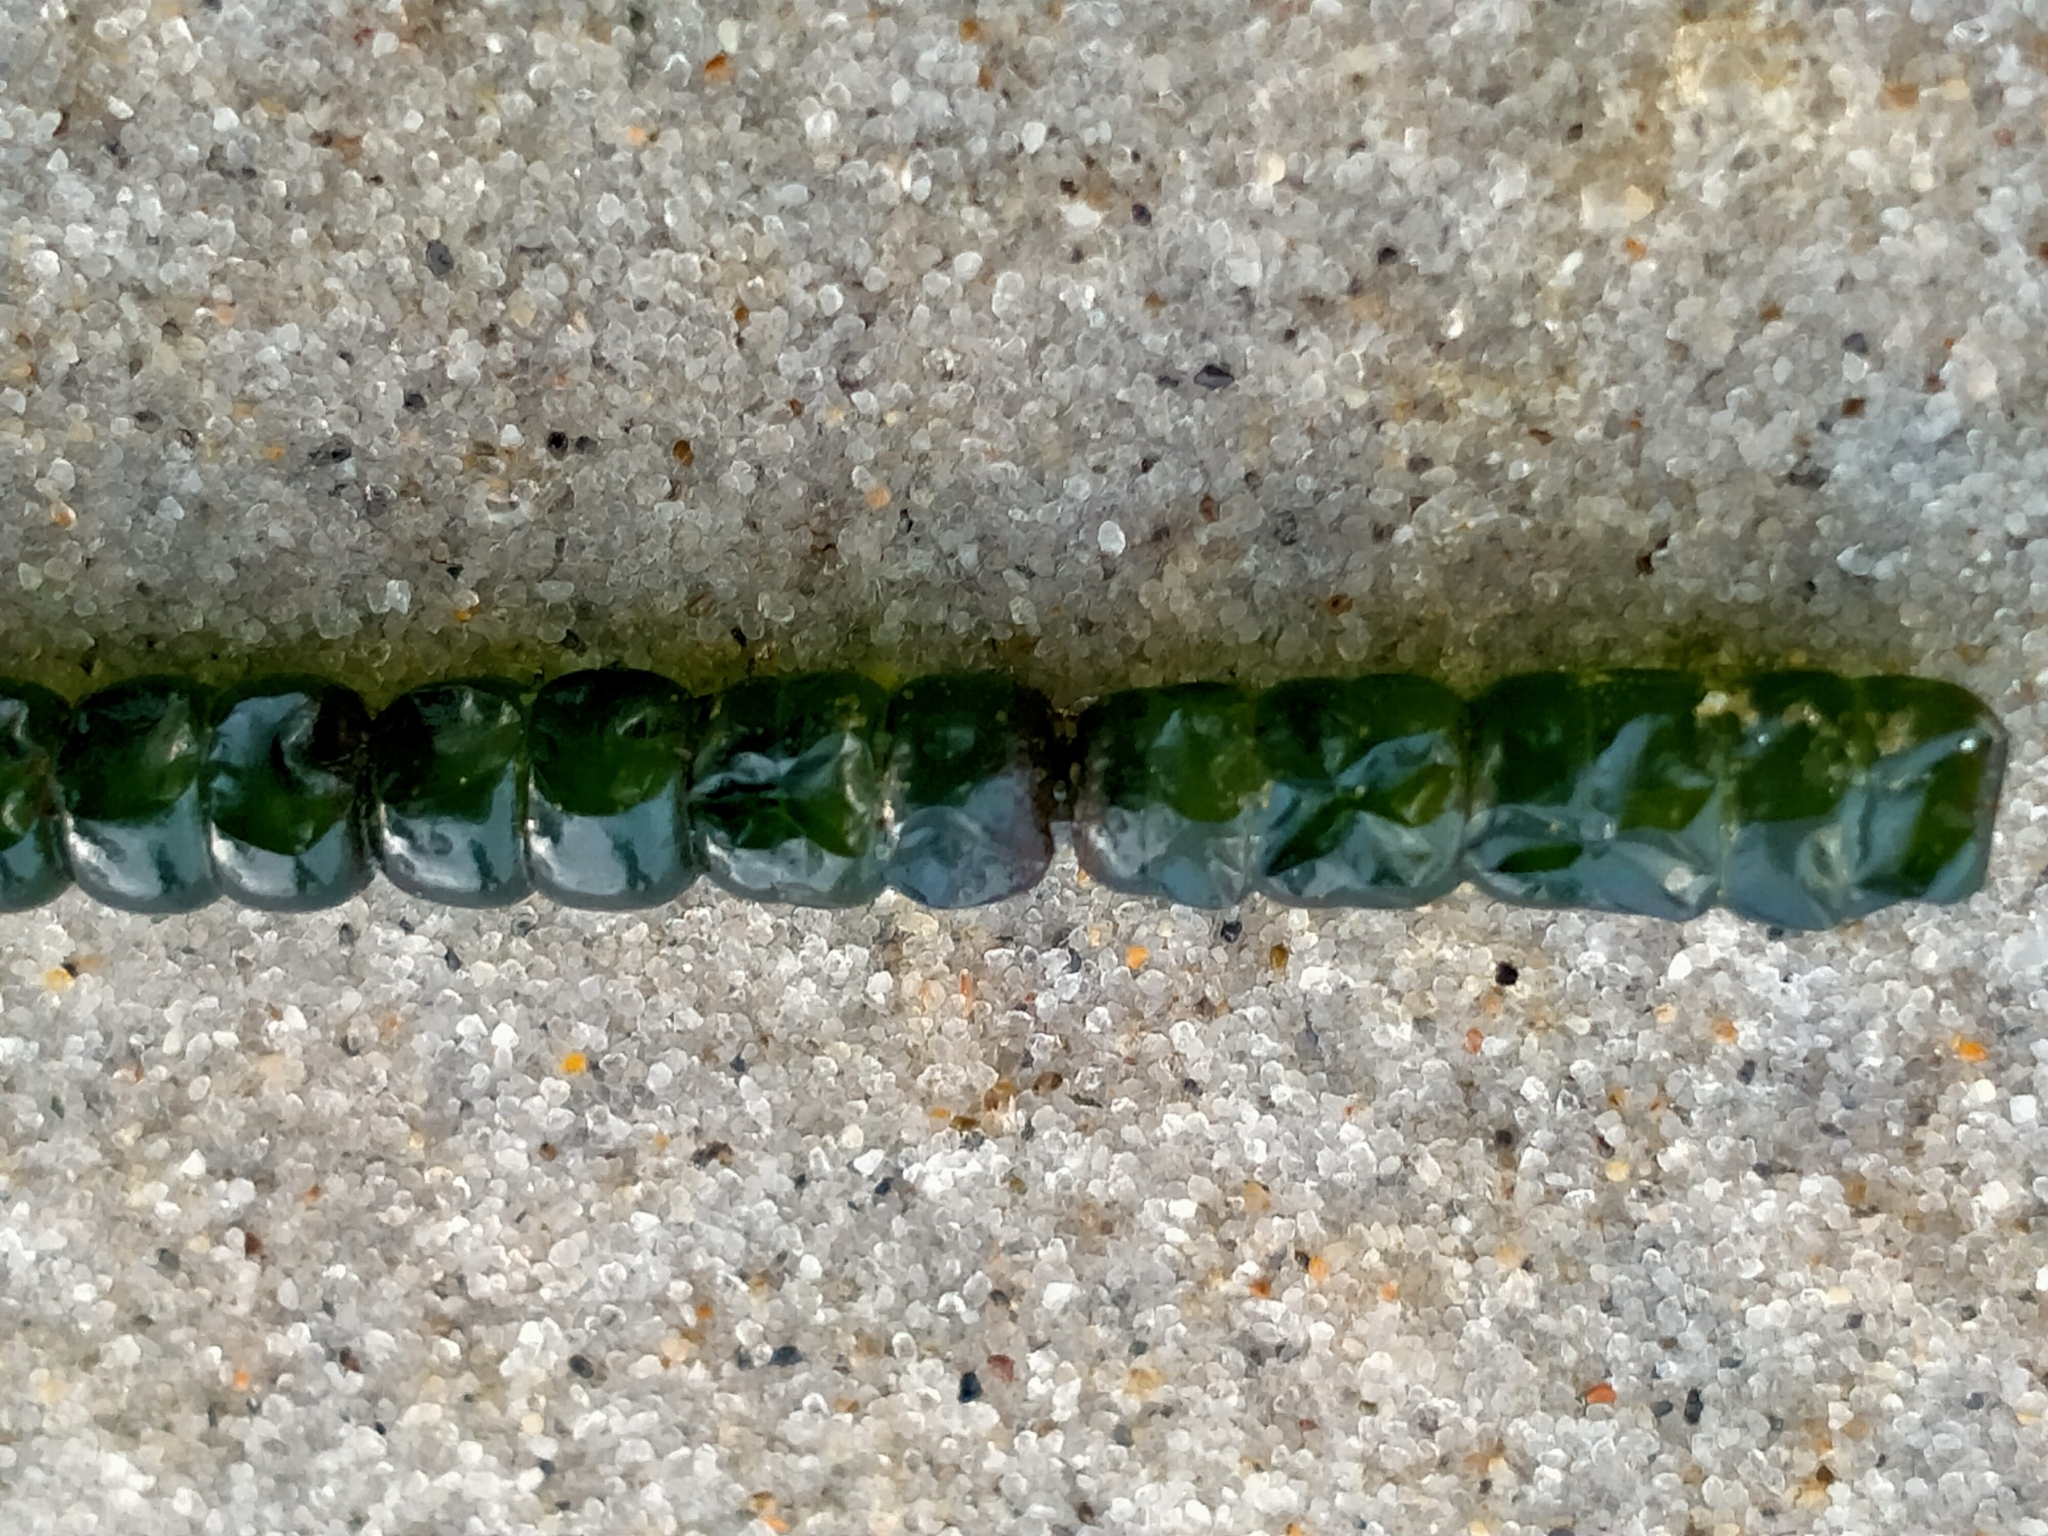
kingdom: Plantae
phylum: Chlorophyta
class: Ulvophyceae
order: Cladophorales
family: Cladophoraceae
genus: Chaetomorpha
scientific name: Chaetomorpha coliformis
